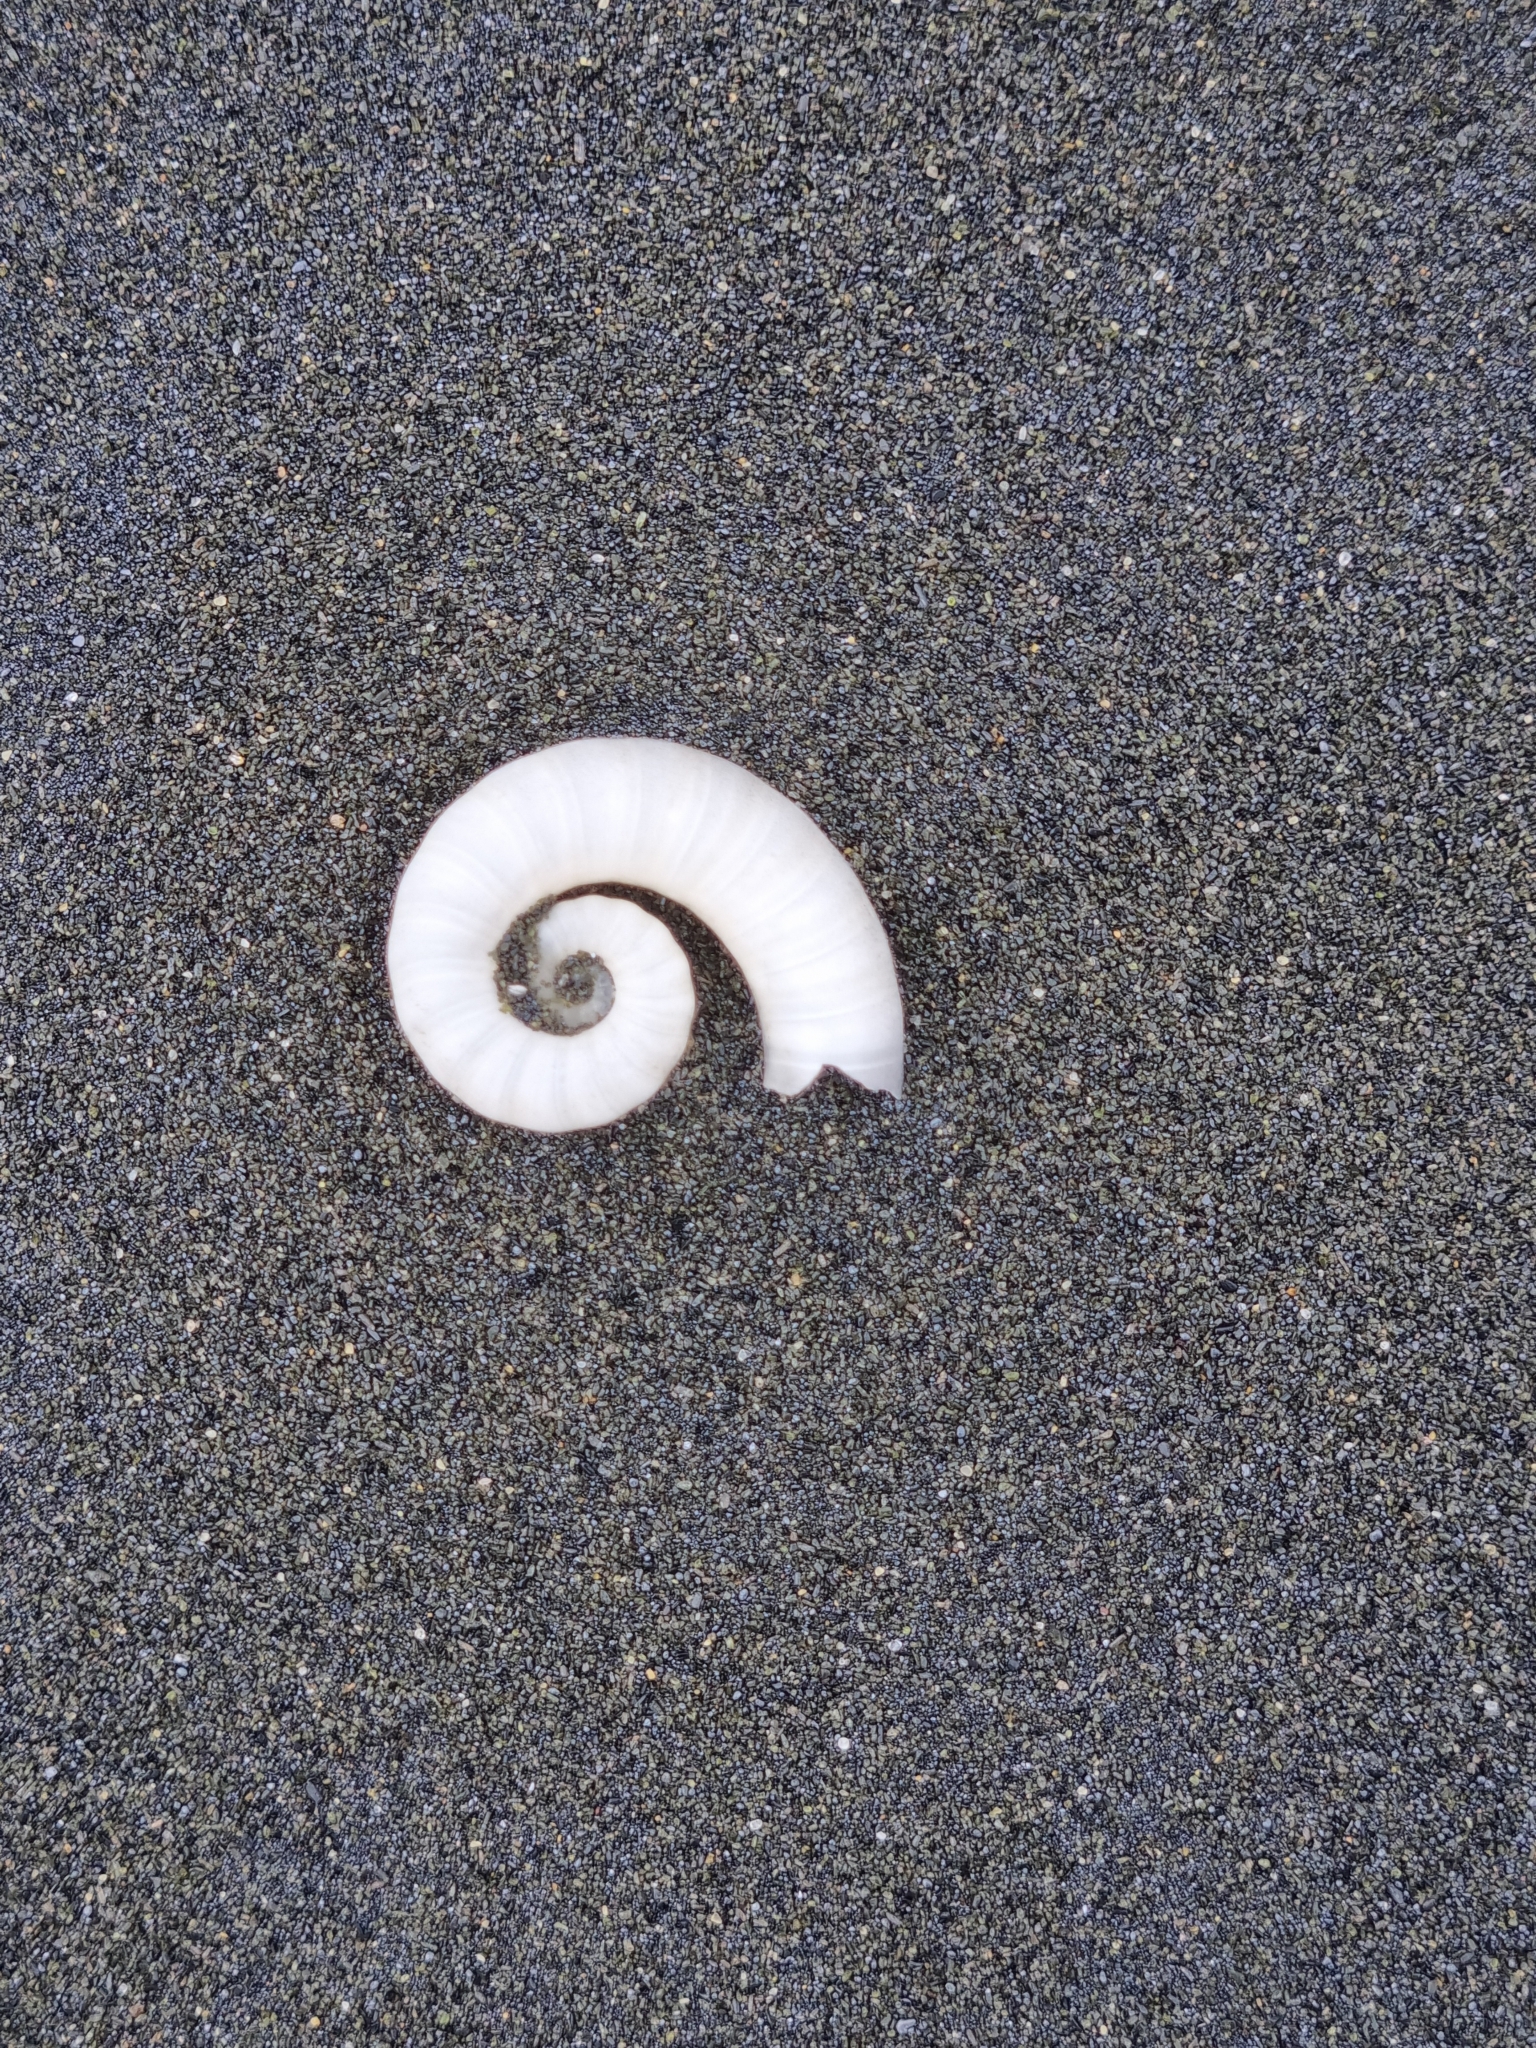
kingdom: Animalia
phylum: Mollusca
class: Cephalopoda
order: Spirulida
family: Spirulidae
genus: Spirula
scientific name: Spirula spirula
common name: Ram's horn squid
